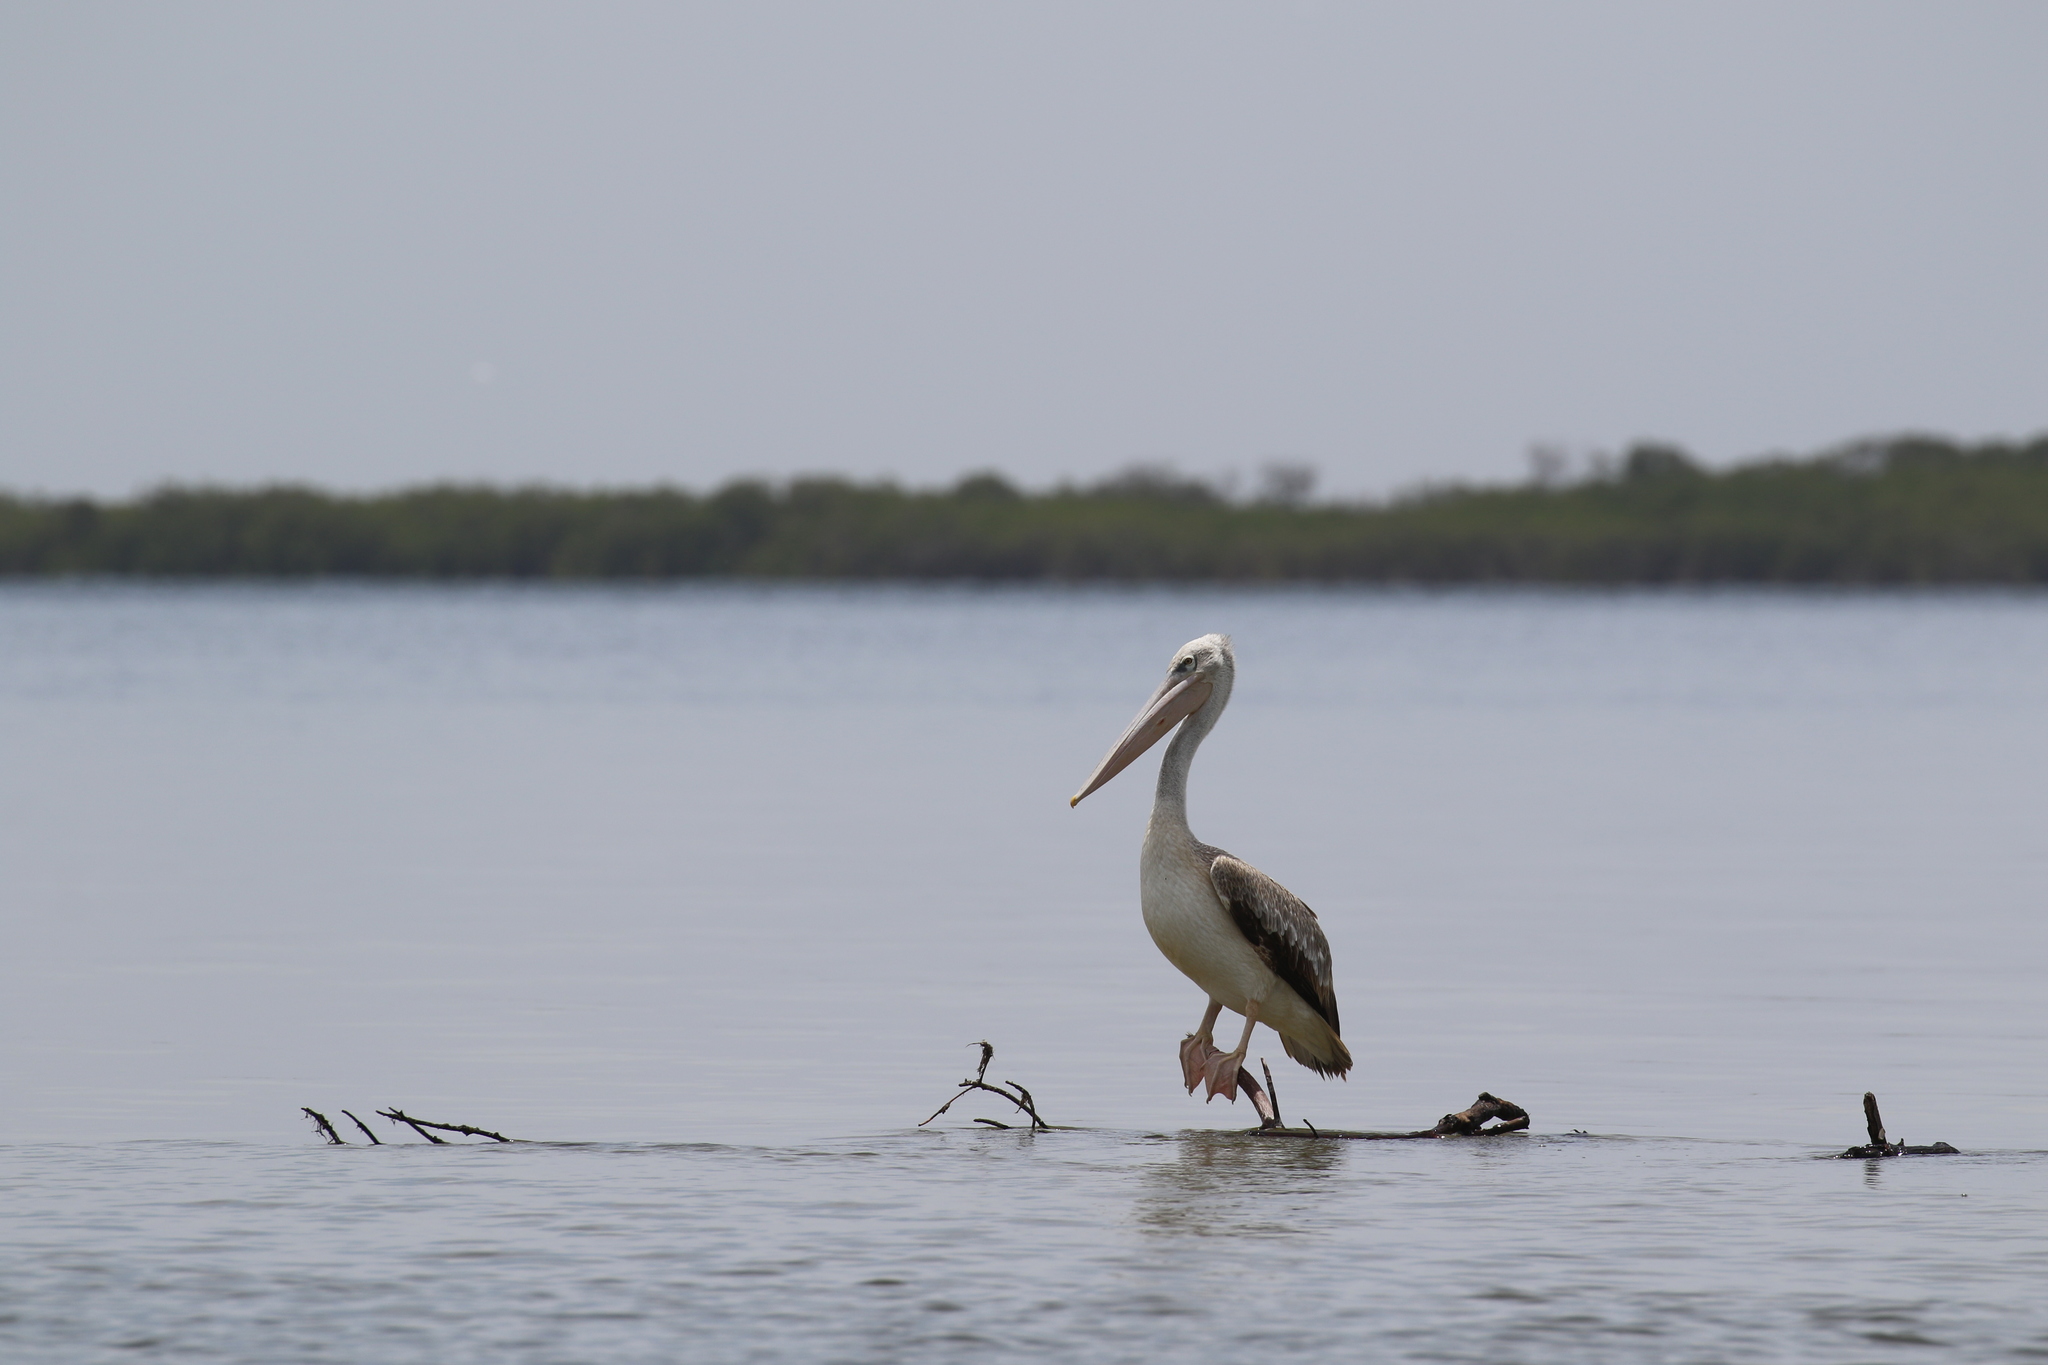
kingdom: Animalia
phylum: Chordata
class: Aves
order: Pelecaniformes
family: Pelecanidae
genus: Pelecanus
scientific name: Pelecanus rufescens
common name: Pink-backed pelican
